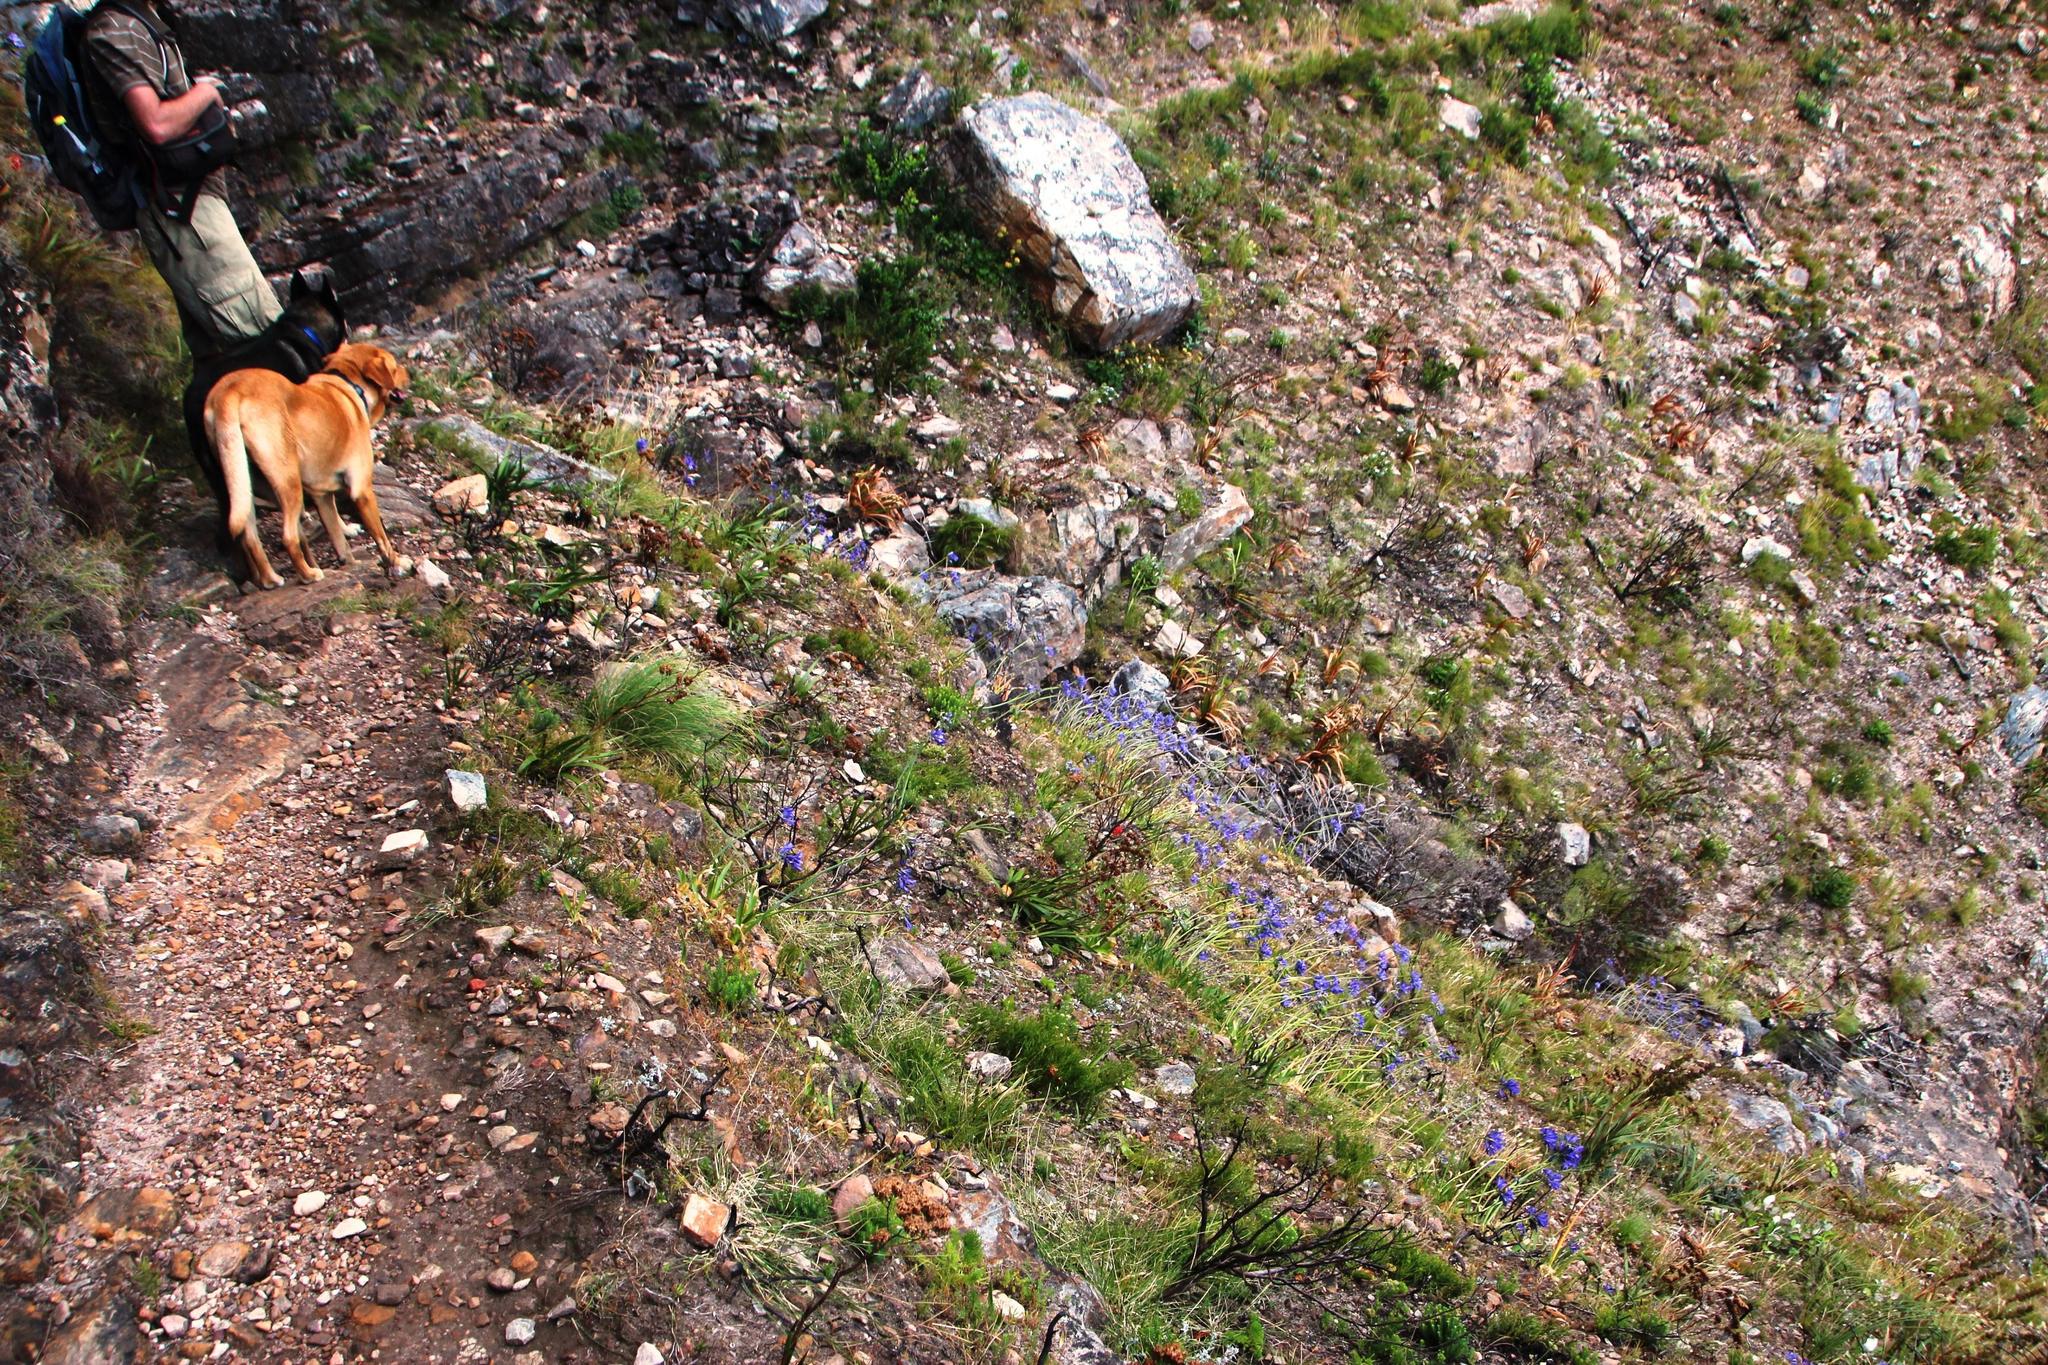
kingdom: Plantae
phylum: Tracheophyta
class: Liliopsida
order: Asparagales
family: Amaryllidaceae
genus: Agapanthus
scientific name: Agapanthus africanus
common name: Lily-of-the-nile
